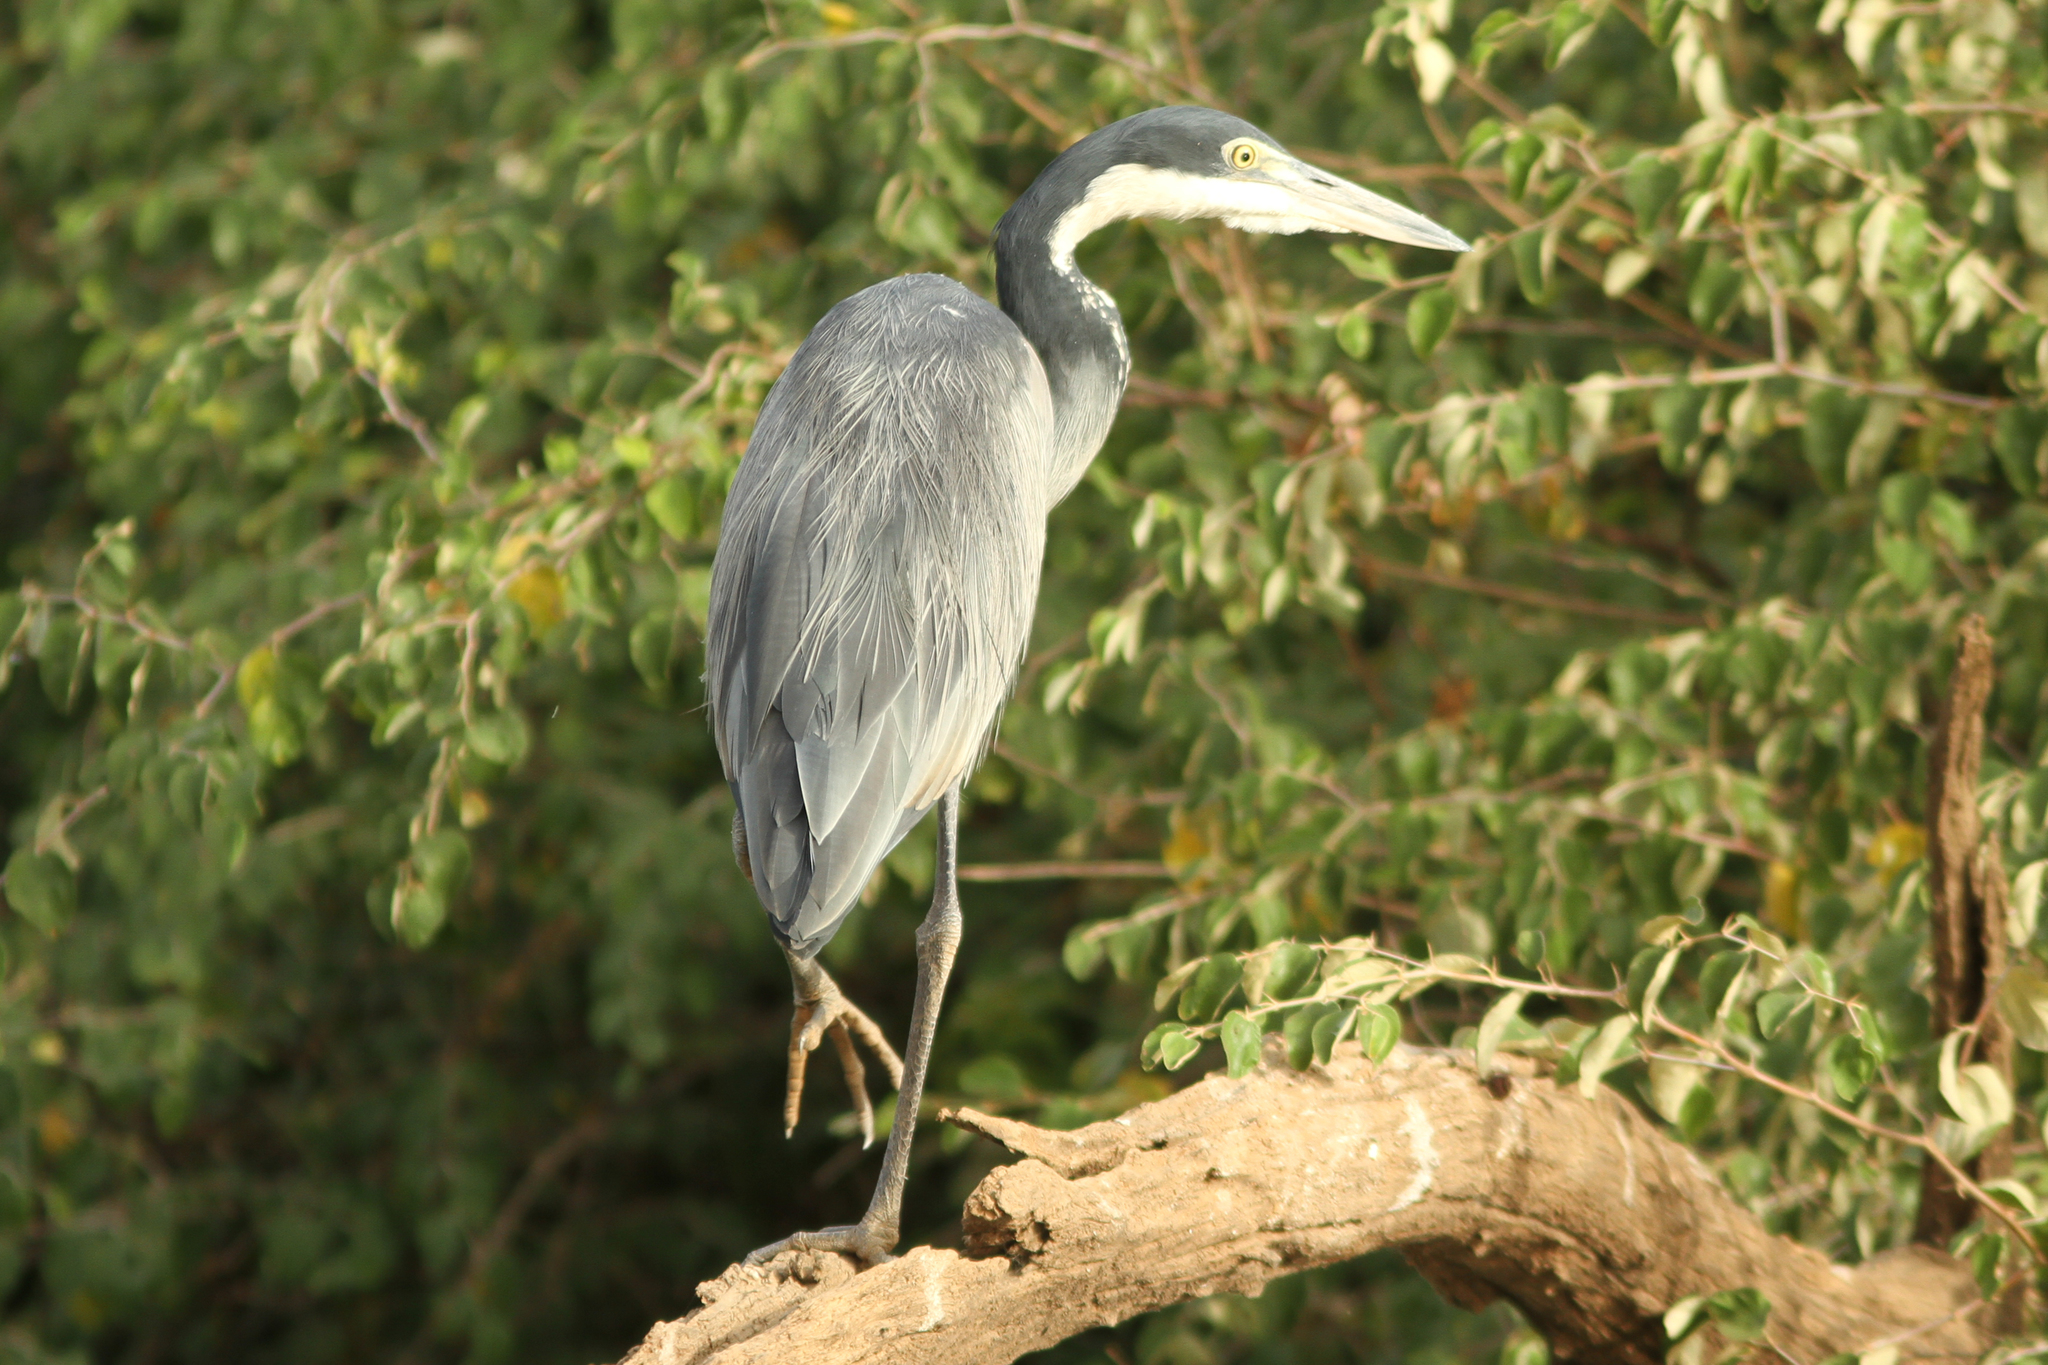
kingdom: Animalia
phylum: Chordata
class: Aves
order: Pelecaniformes
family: Ardeidae
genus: Ardea
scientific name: Ardea melanocephala
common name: Black-headed heron
